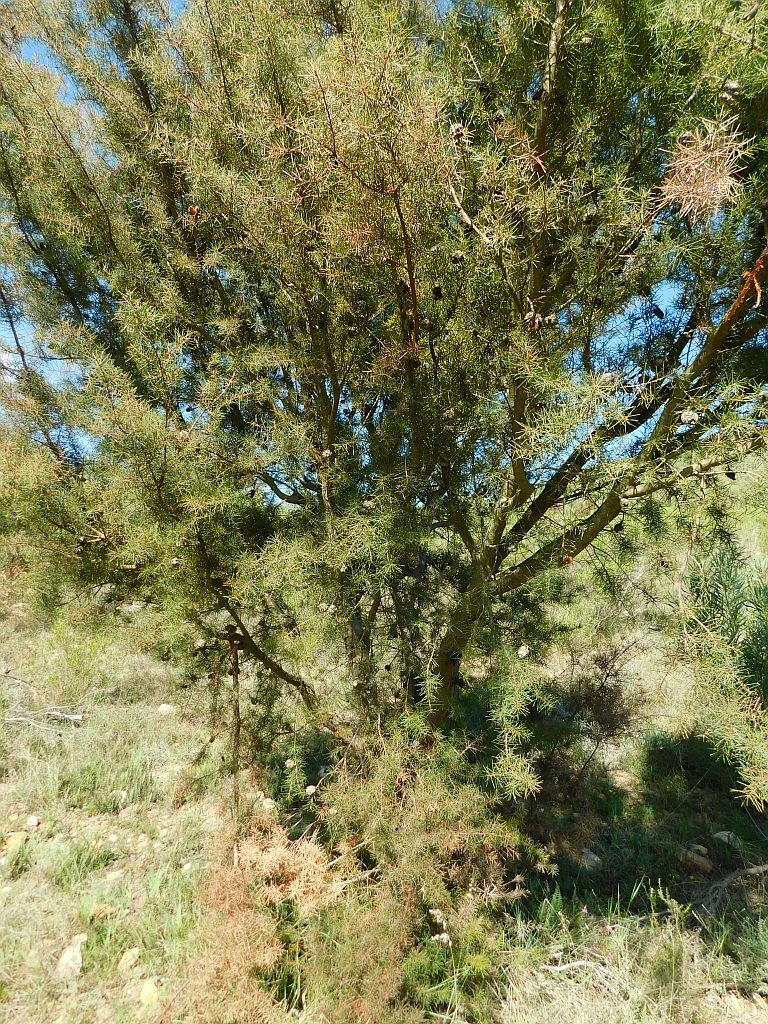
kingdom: Plantae
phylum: Tracheophyta
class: Magnoliopsida
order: Proteales
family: Proteaceae
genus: Hakea
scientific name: Hakea sericea
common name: Needle bush
